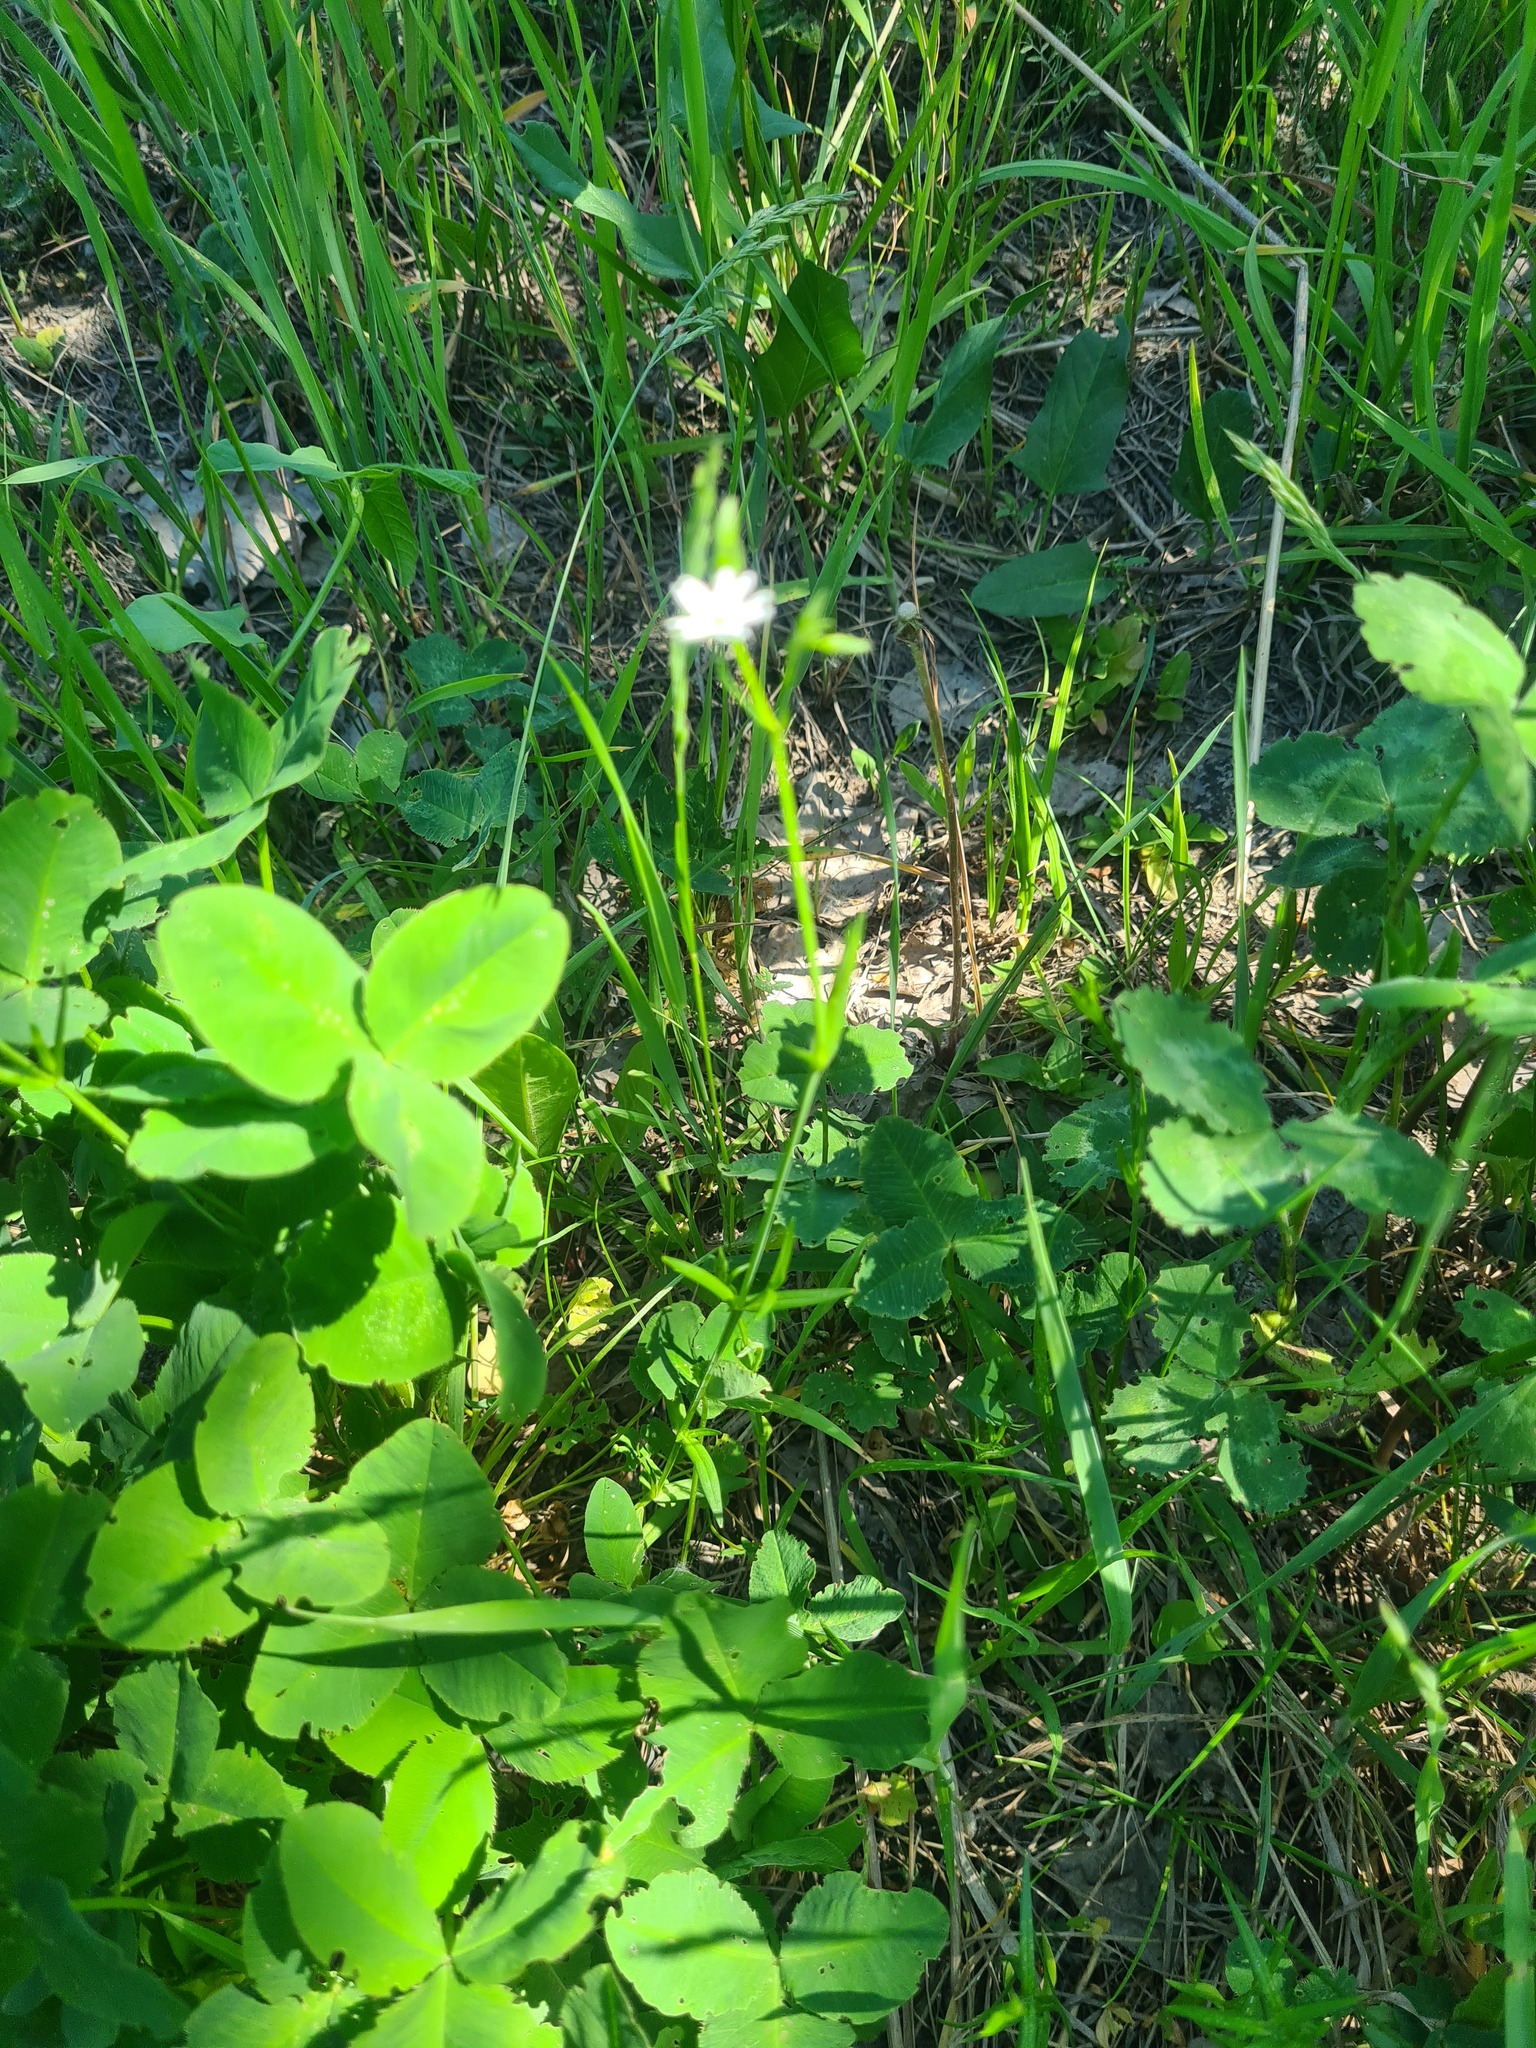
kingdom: Plantae
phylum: Tracheophyta
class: Magnoliopsida
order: Caryophyllales
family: Caryophyllaceae
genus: Stellaria
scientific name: Stellaria graminea
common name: Grass-like starwort
